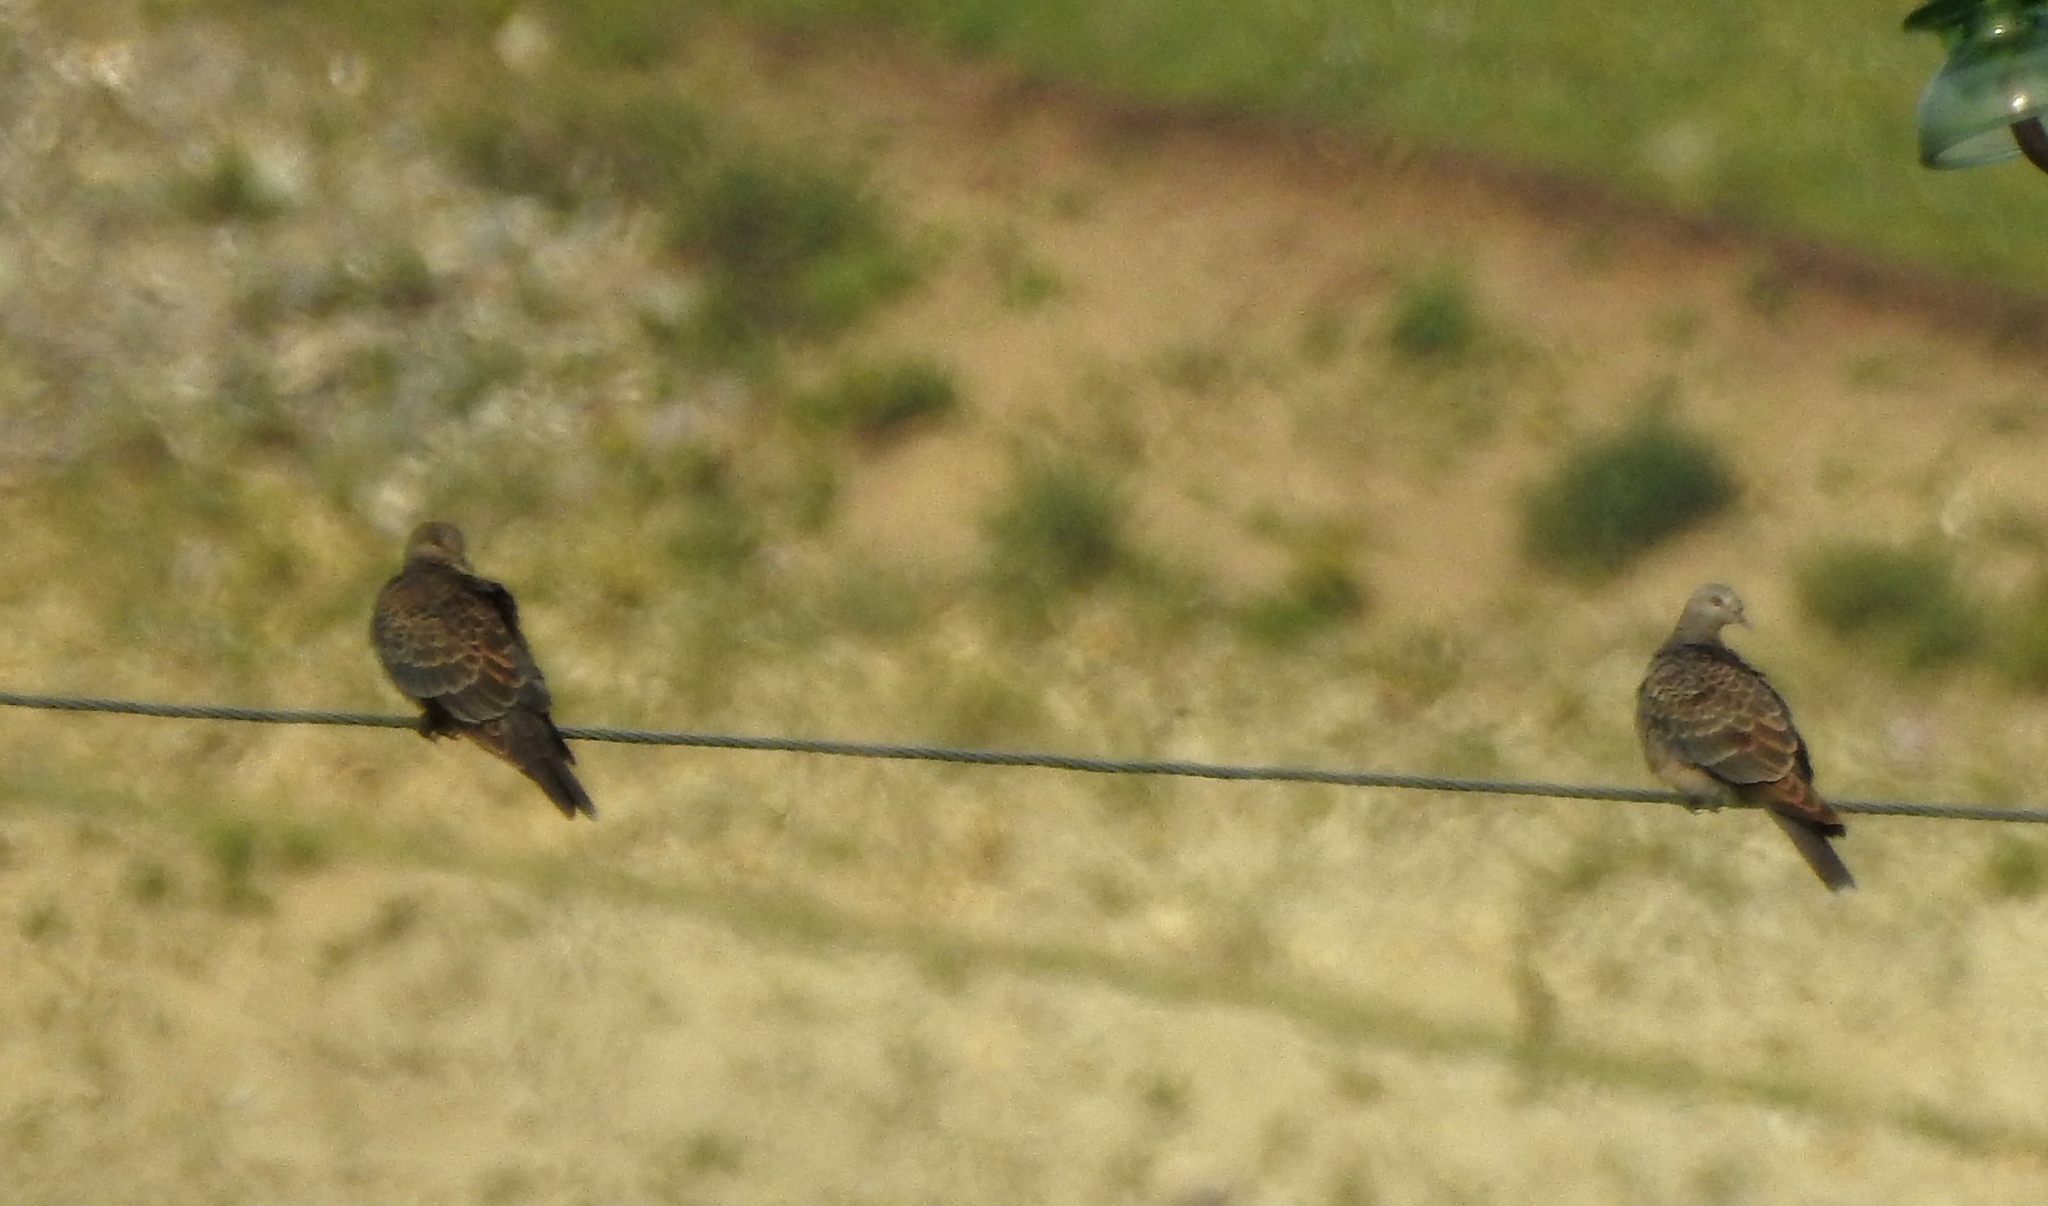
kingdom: Animalia
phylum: Chordata
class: Aves
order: Columbiformes
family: Columbidae
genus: Streptopelia
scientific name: Streptopelia orientalis
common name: Oriental turtle dove
